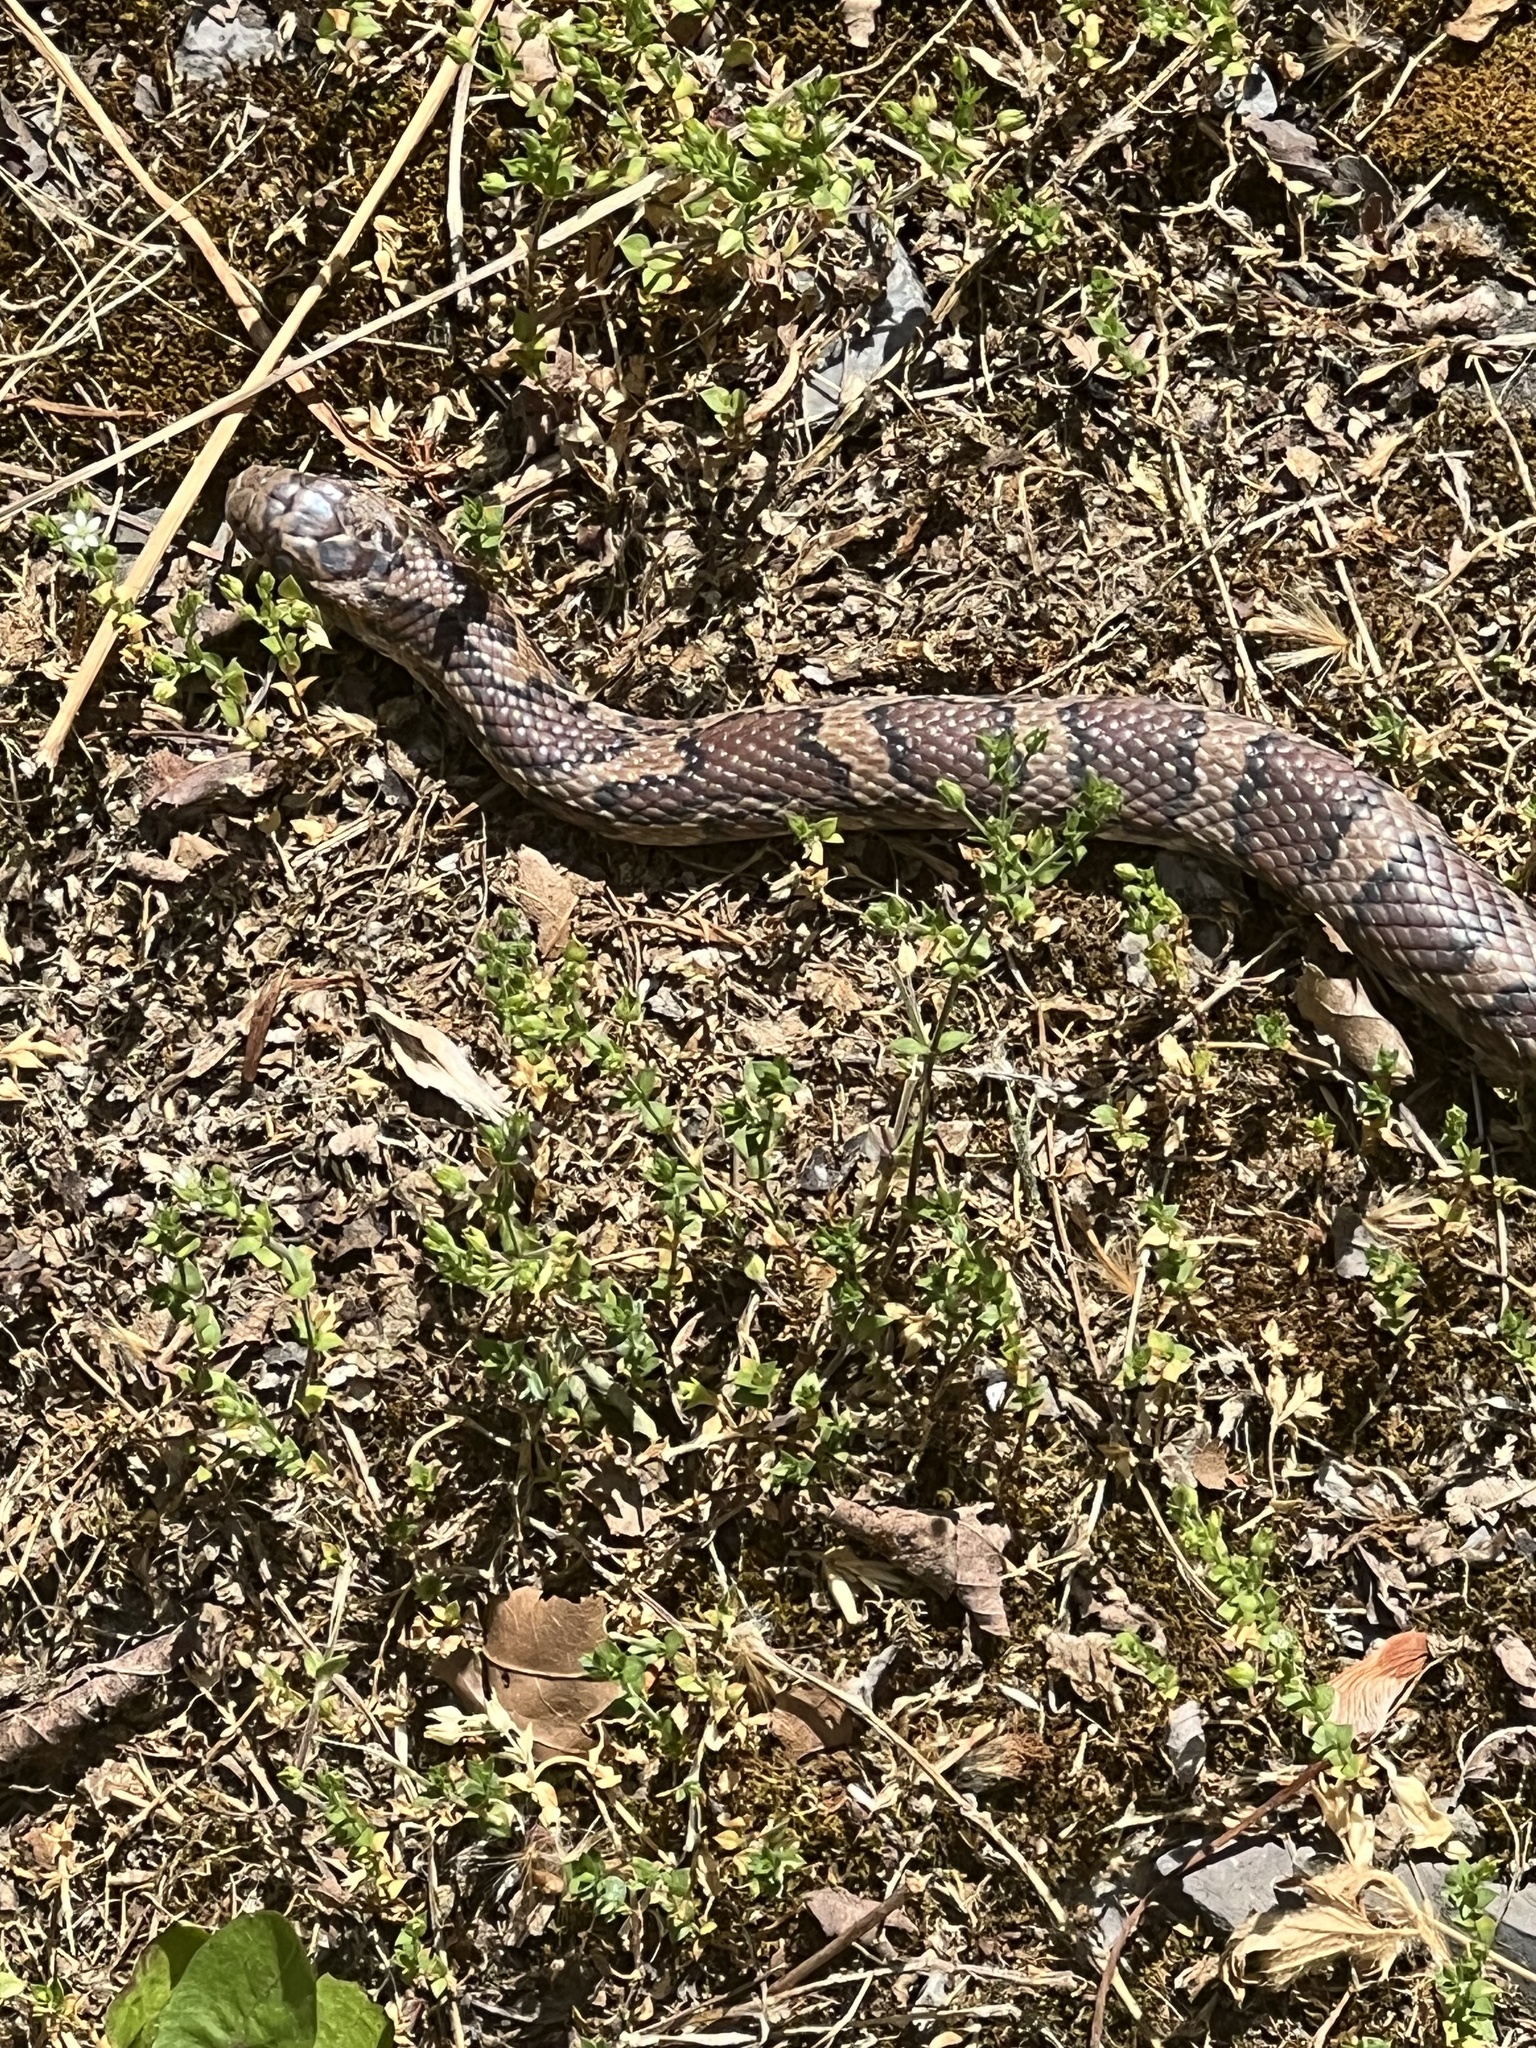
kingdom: Animalia
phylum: Chordata
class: Squamata
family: Colubridae
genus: Lampropeltis
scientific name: Lampropeltis triangulum
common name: Eastern milksnake
